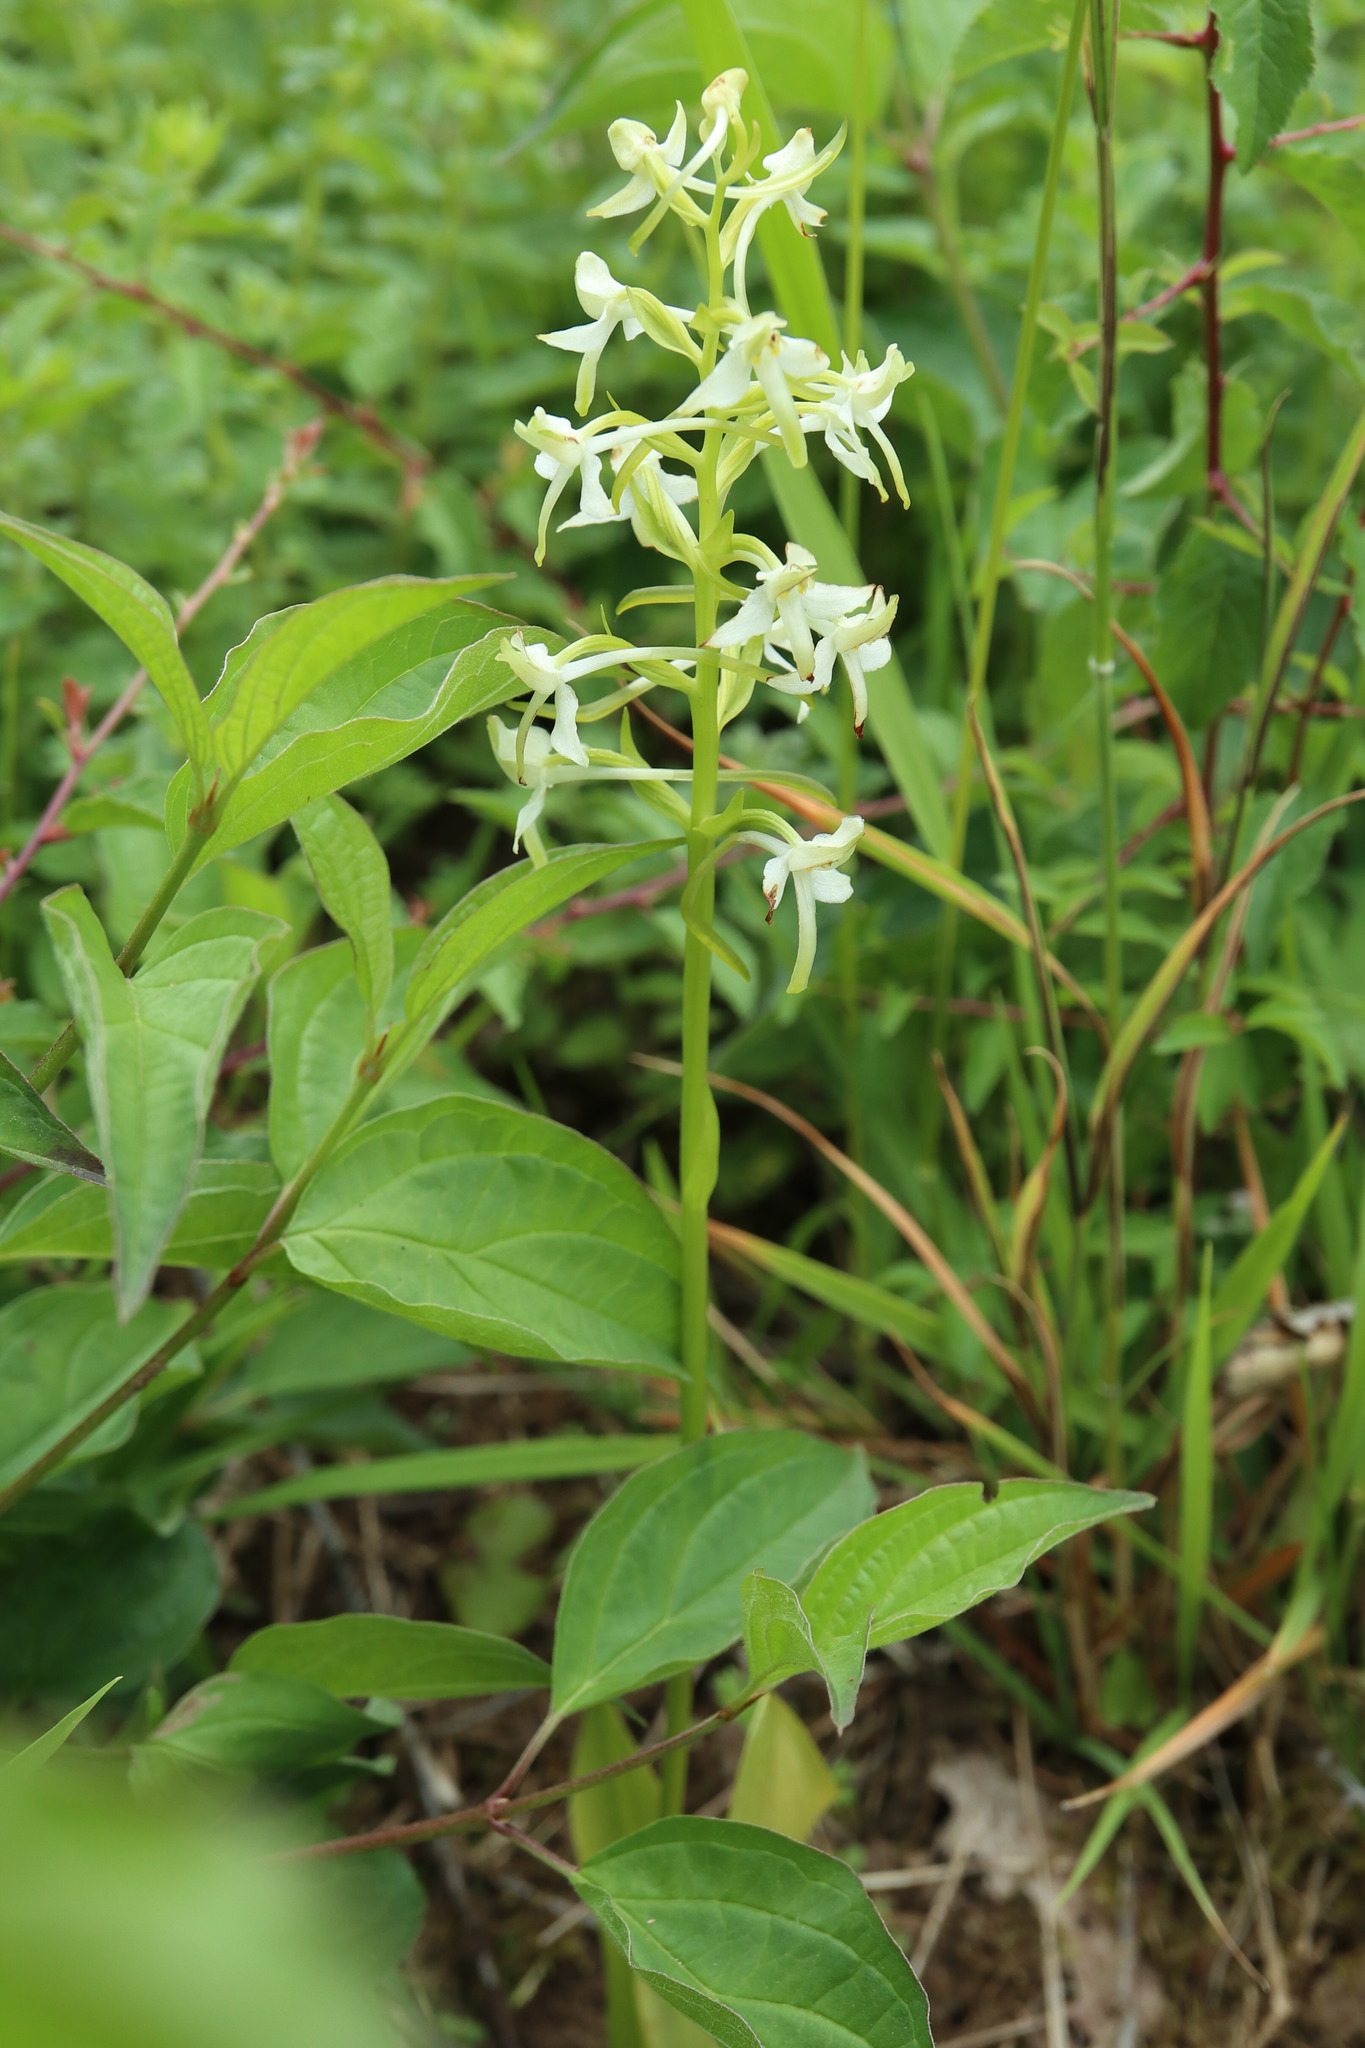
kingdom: Plantae
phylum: Tracheophyta
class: Liliopsida
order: Asparagales
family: Orchidaceae
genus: Platanthera
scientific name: Platanthera chlorantha
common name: Greater butterfly-orchid
